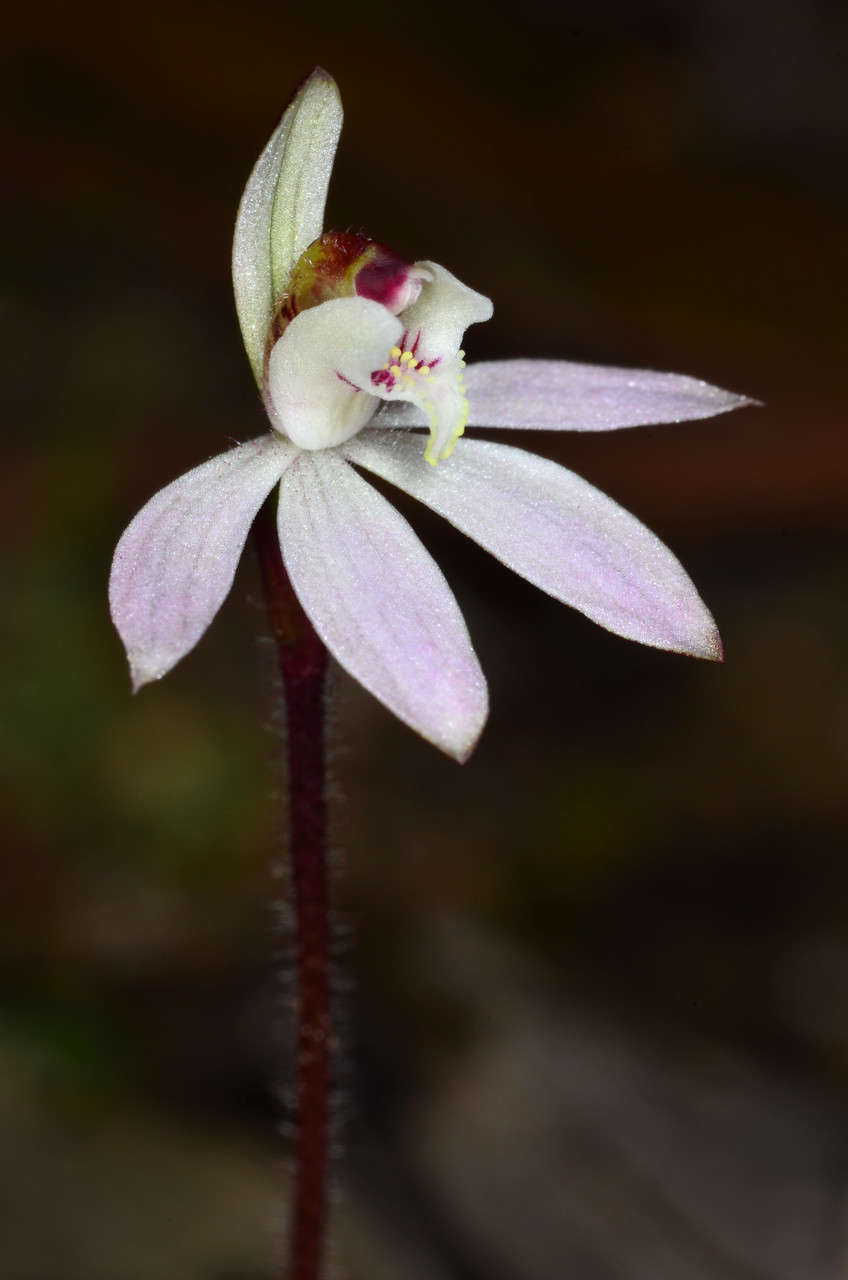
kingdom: Plantae
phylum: Tracheophyta
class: Liliopsida
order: Asparagales
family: Orchidaceae
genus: Caladenia
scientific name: Caladenia fuscata
